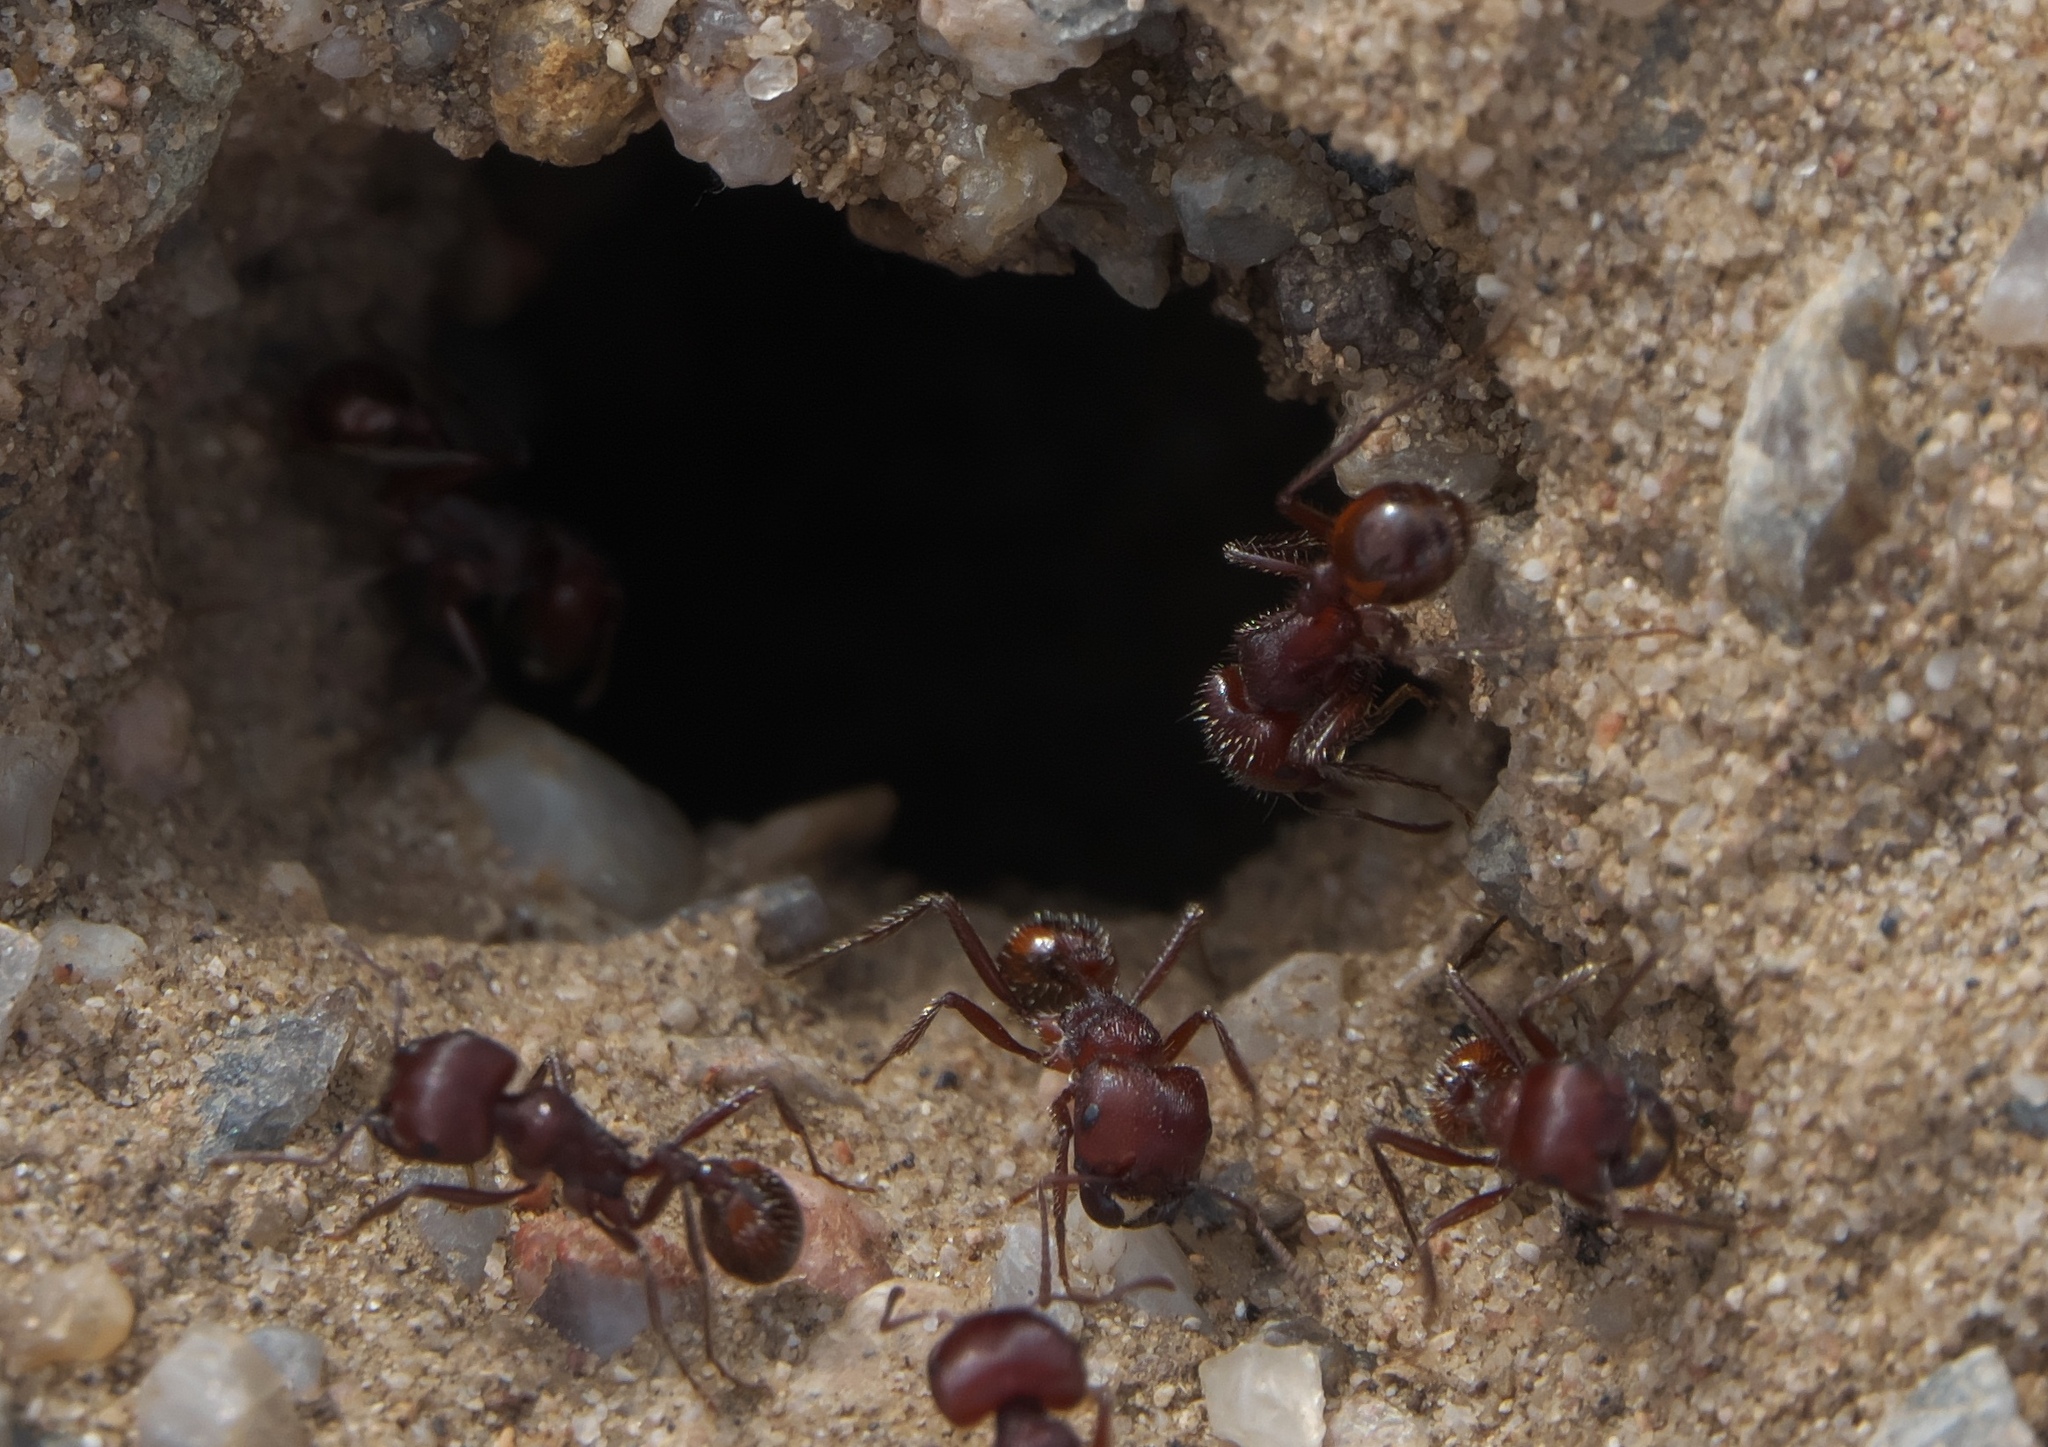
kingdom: Animalia
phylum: Arthropoda
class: Insecta
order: Hymenoptera
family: Formicidae
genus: Pogonomyrmex
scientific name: Pogonomyrmex occidentalis
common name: Western harvester ant
